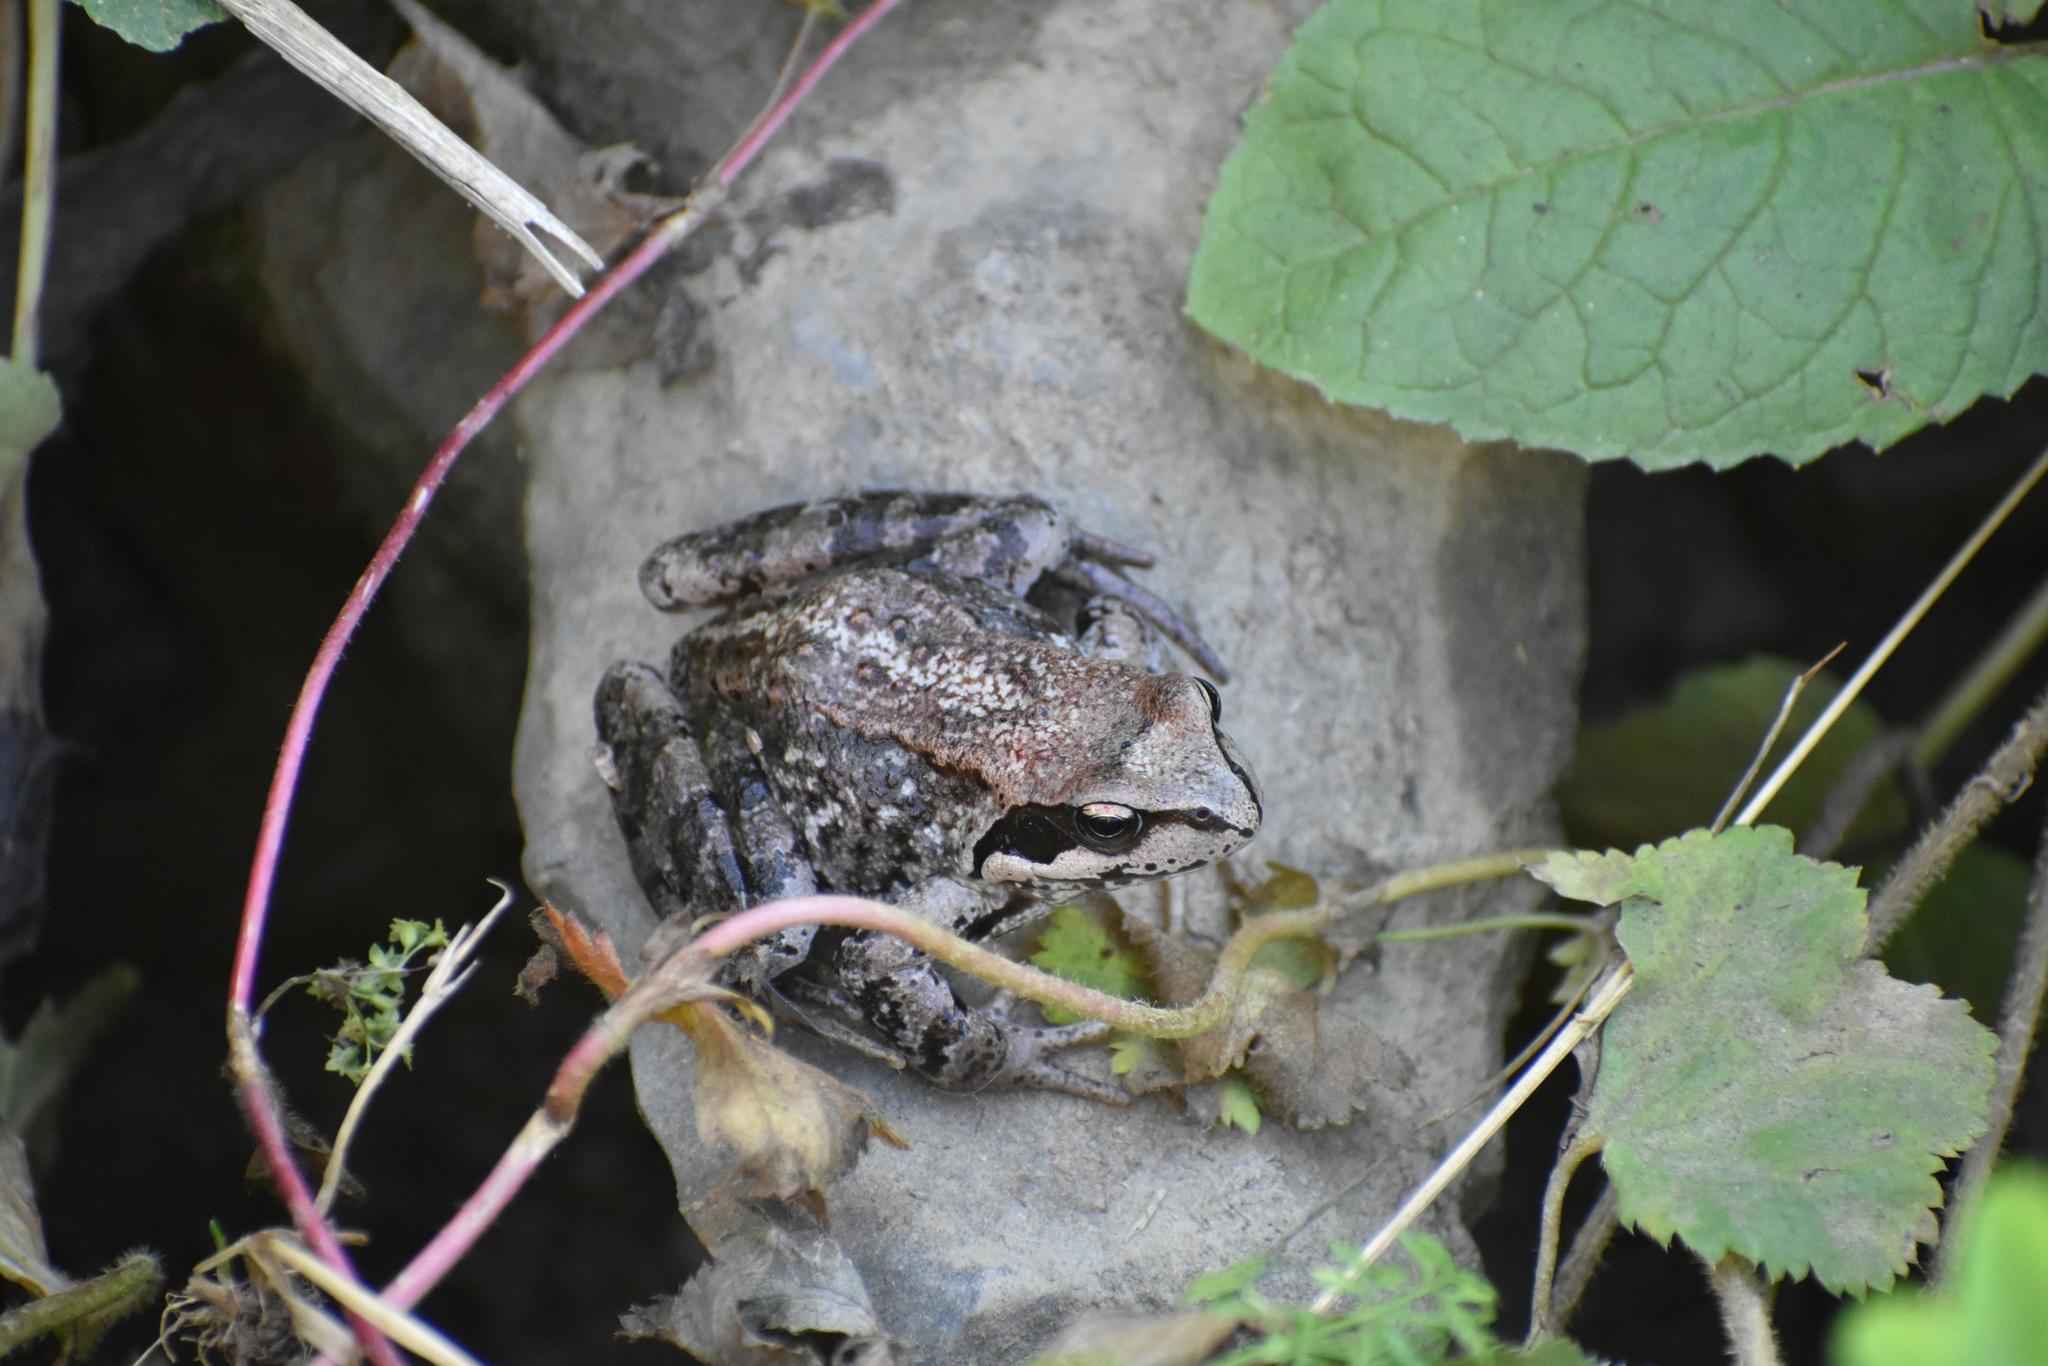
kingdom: Animalia
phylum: Chordata
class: Amphibia
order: Anura
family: Ranidae
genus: Rana
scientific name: Rana temporaria
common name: Common frog
